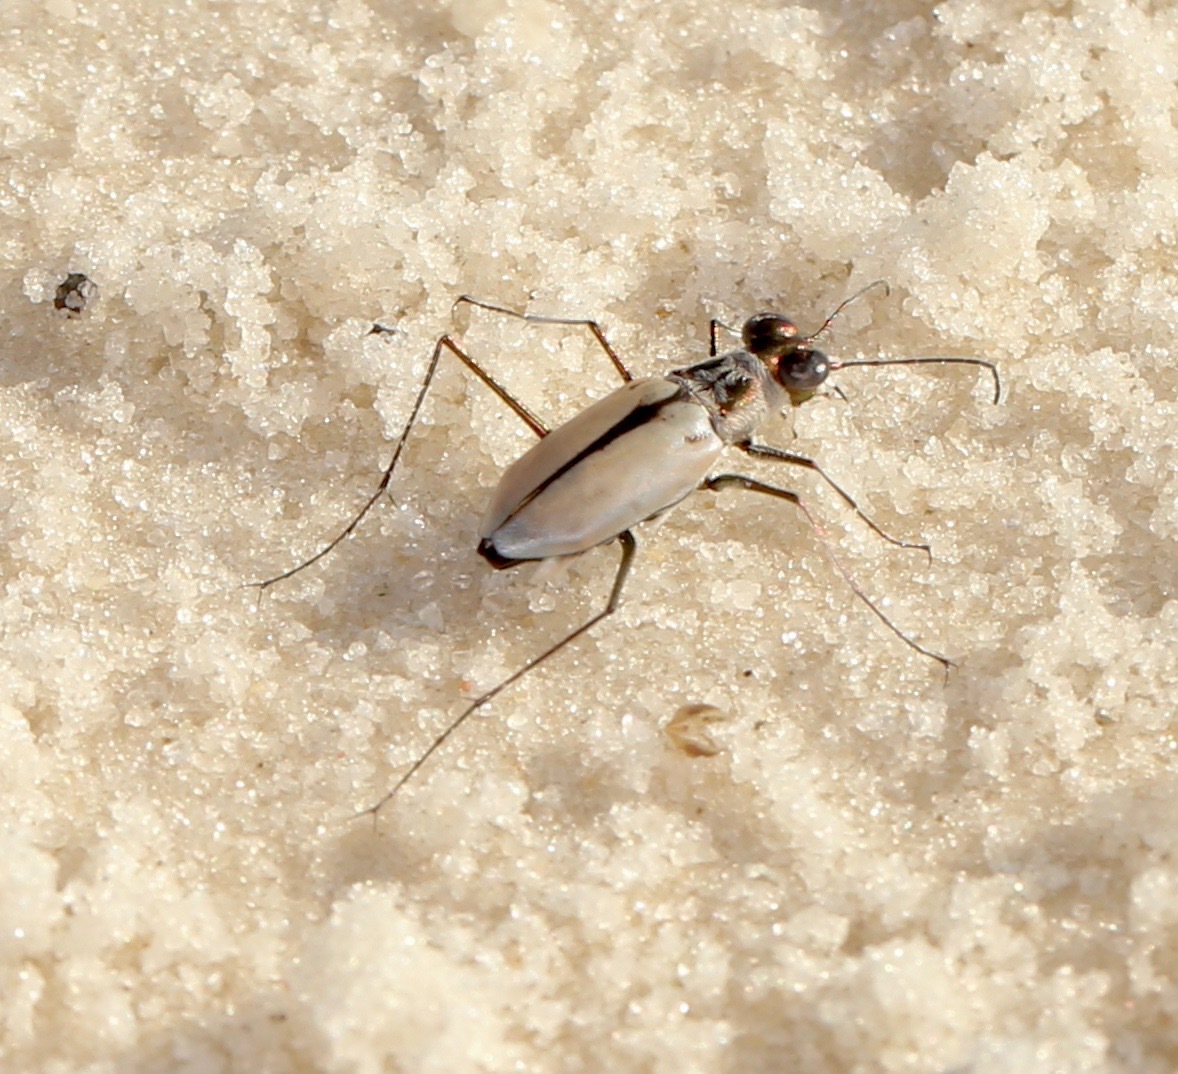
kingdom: Animalia
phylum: Arthropoda
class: Insecta
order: Coleoptera
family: Carabidae
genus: Habroscelimorpha
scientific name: Habroscelimorpha dorsalis
